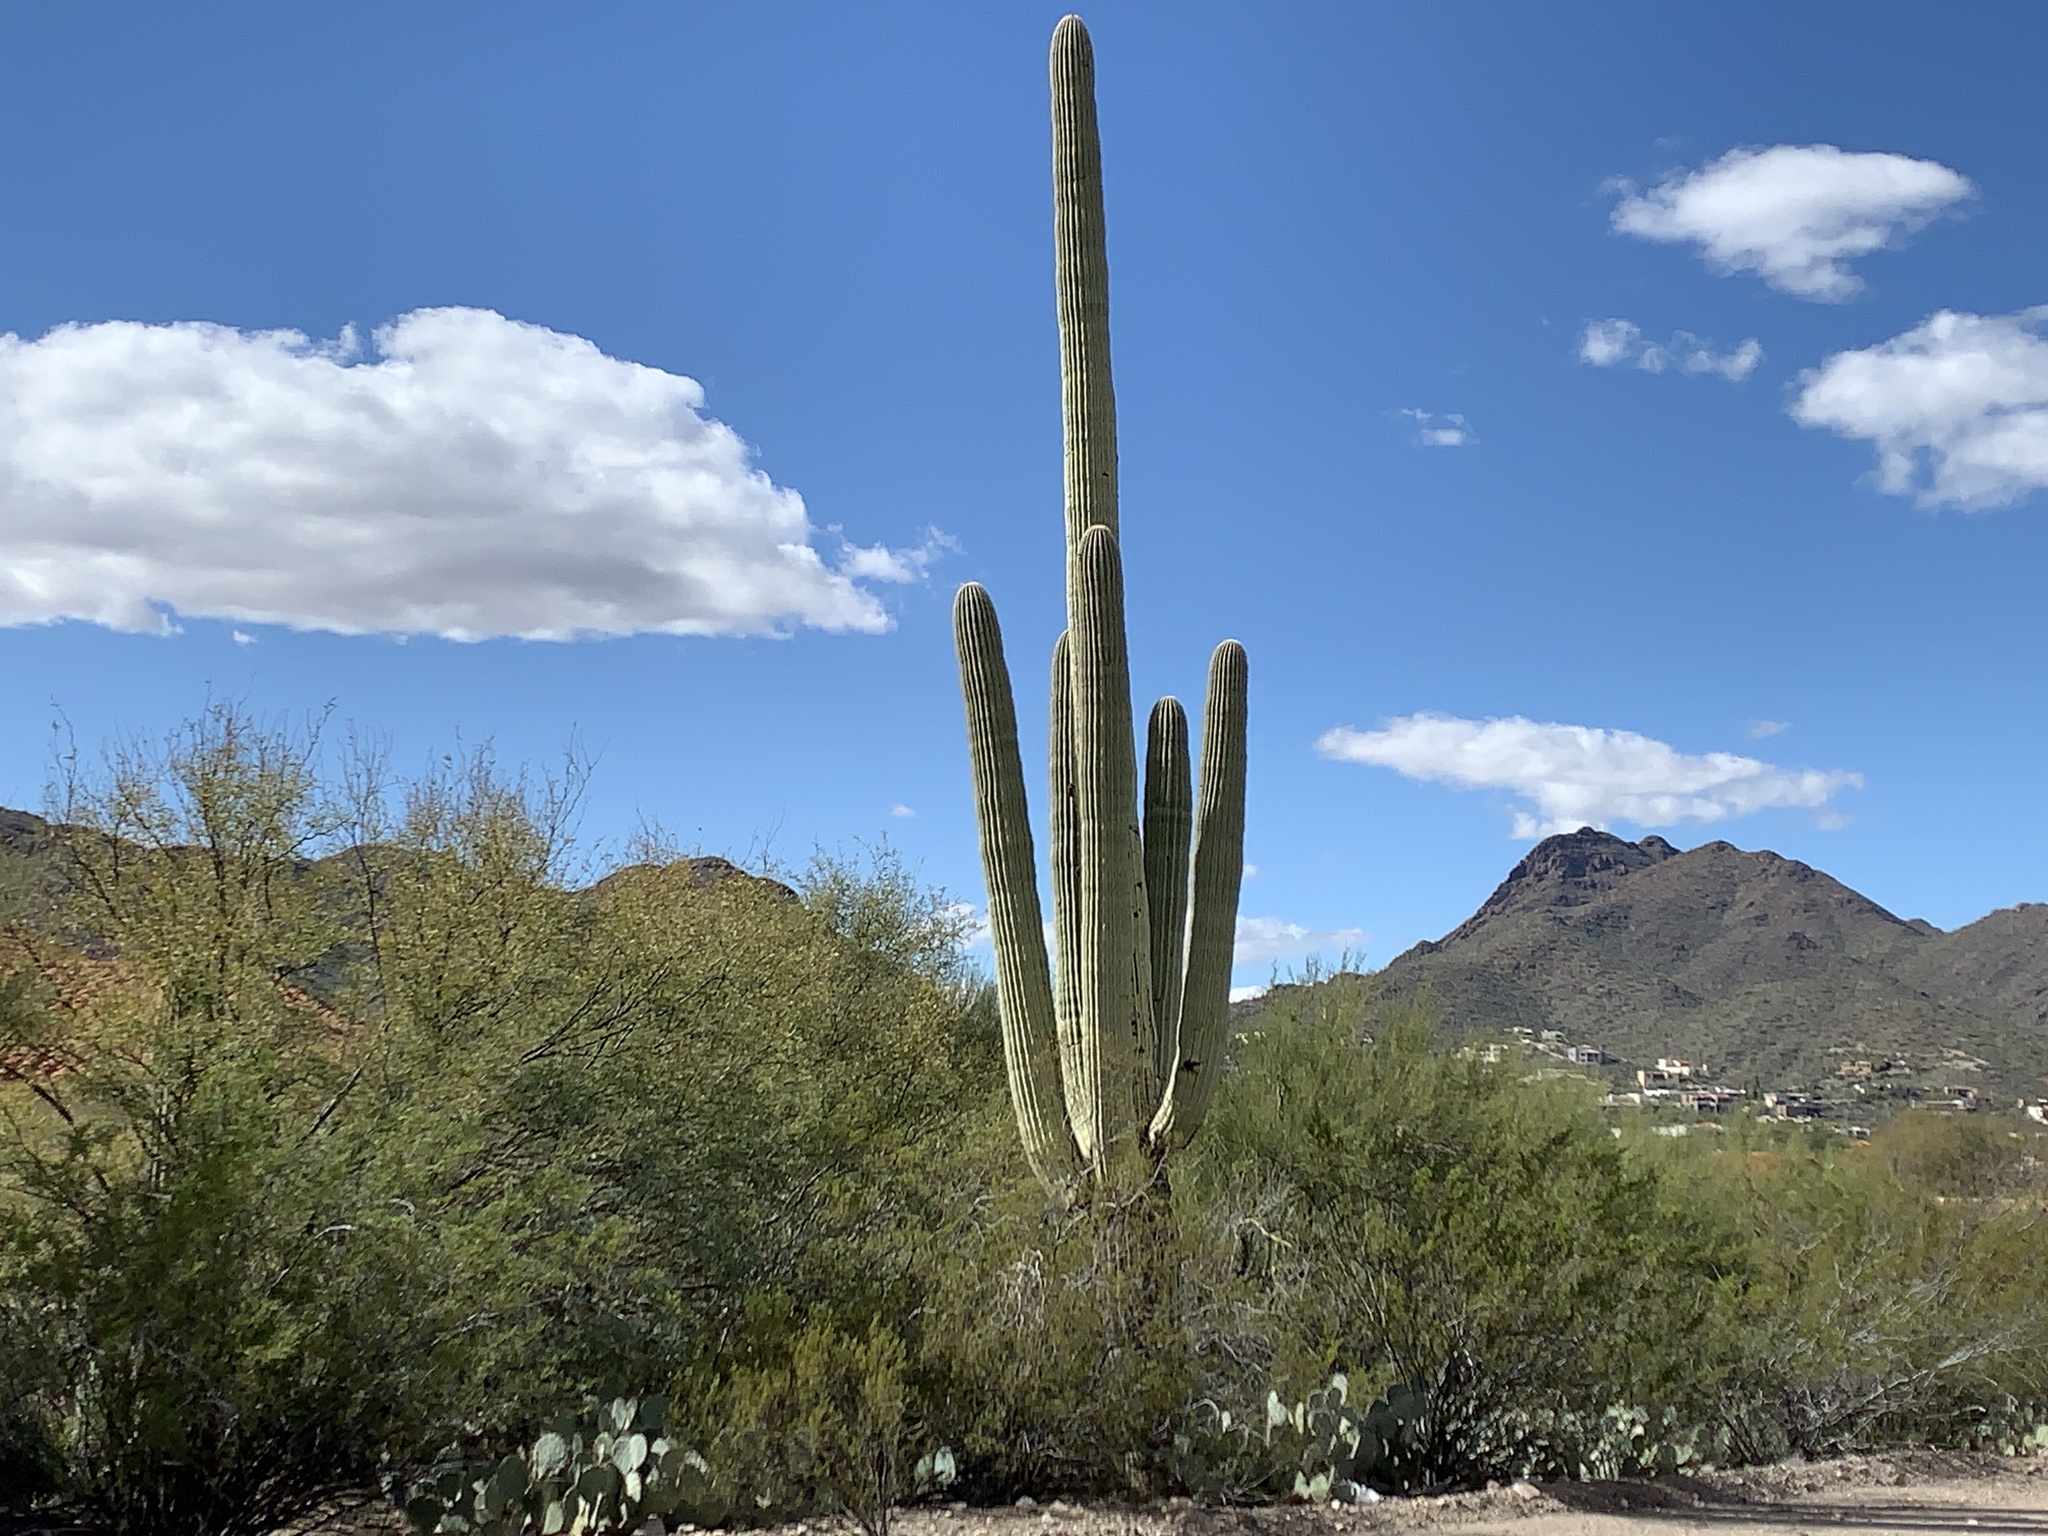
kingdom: Plantae
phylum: Tracheophyta
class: Magnoliopsida
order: Caryophyllales
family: Cactaceae
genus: Carnegiea
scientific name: Carnegiea gigantea
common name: Saguaro
